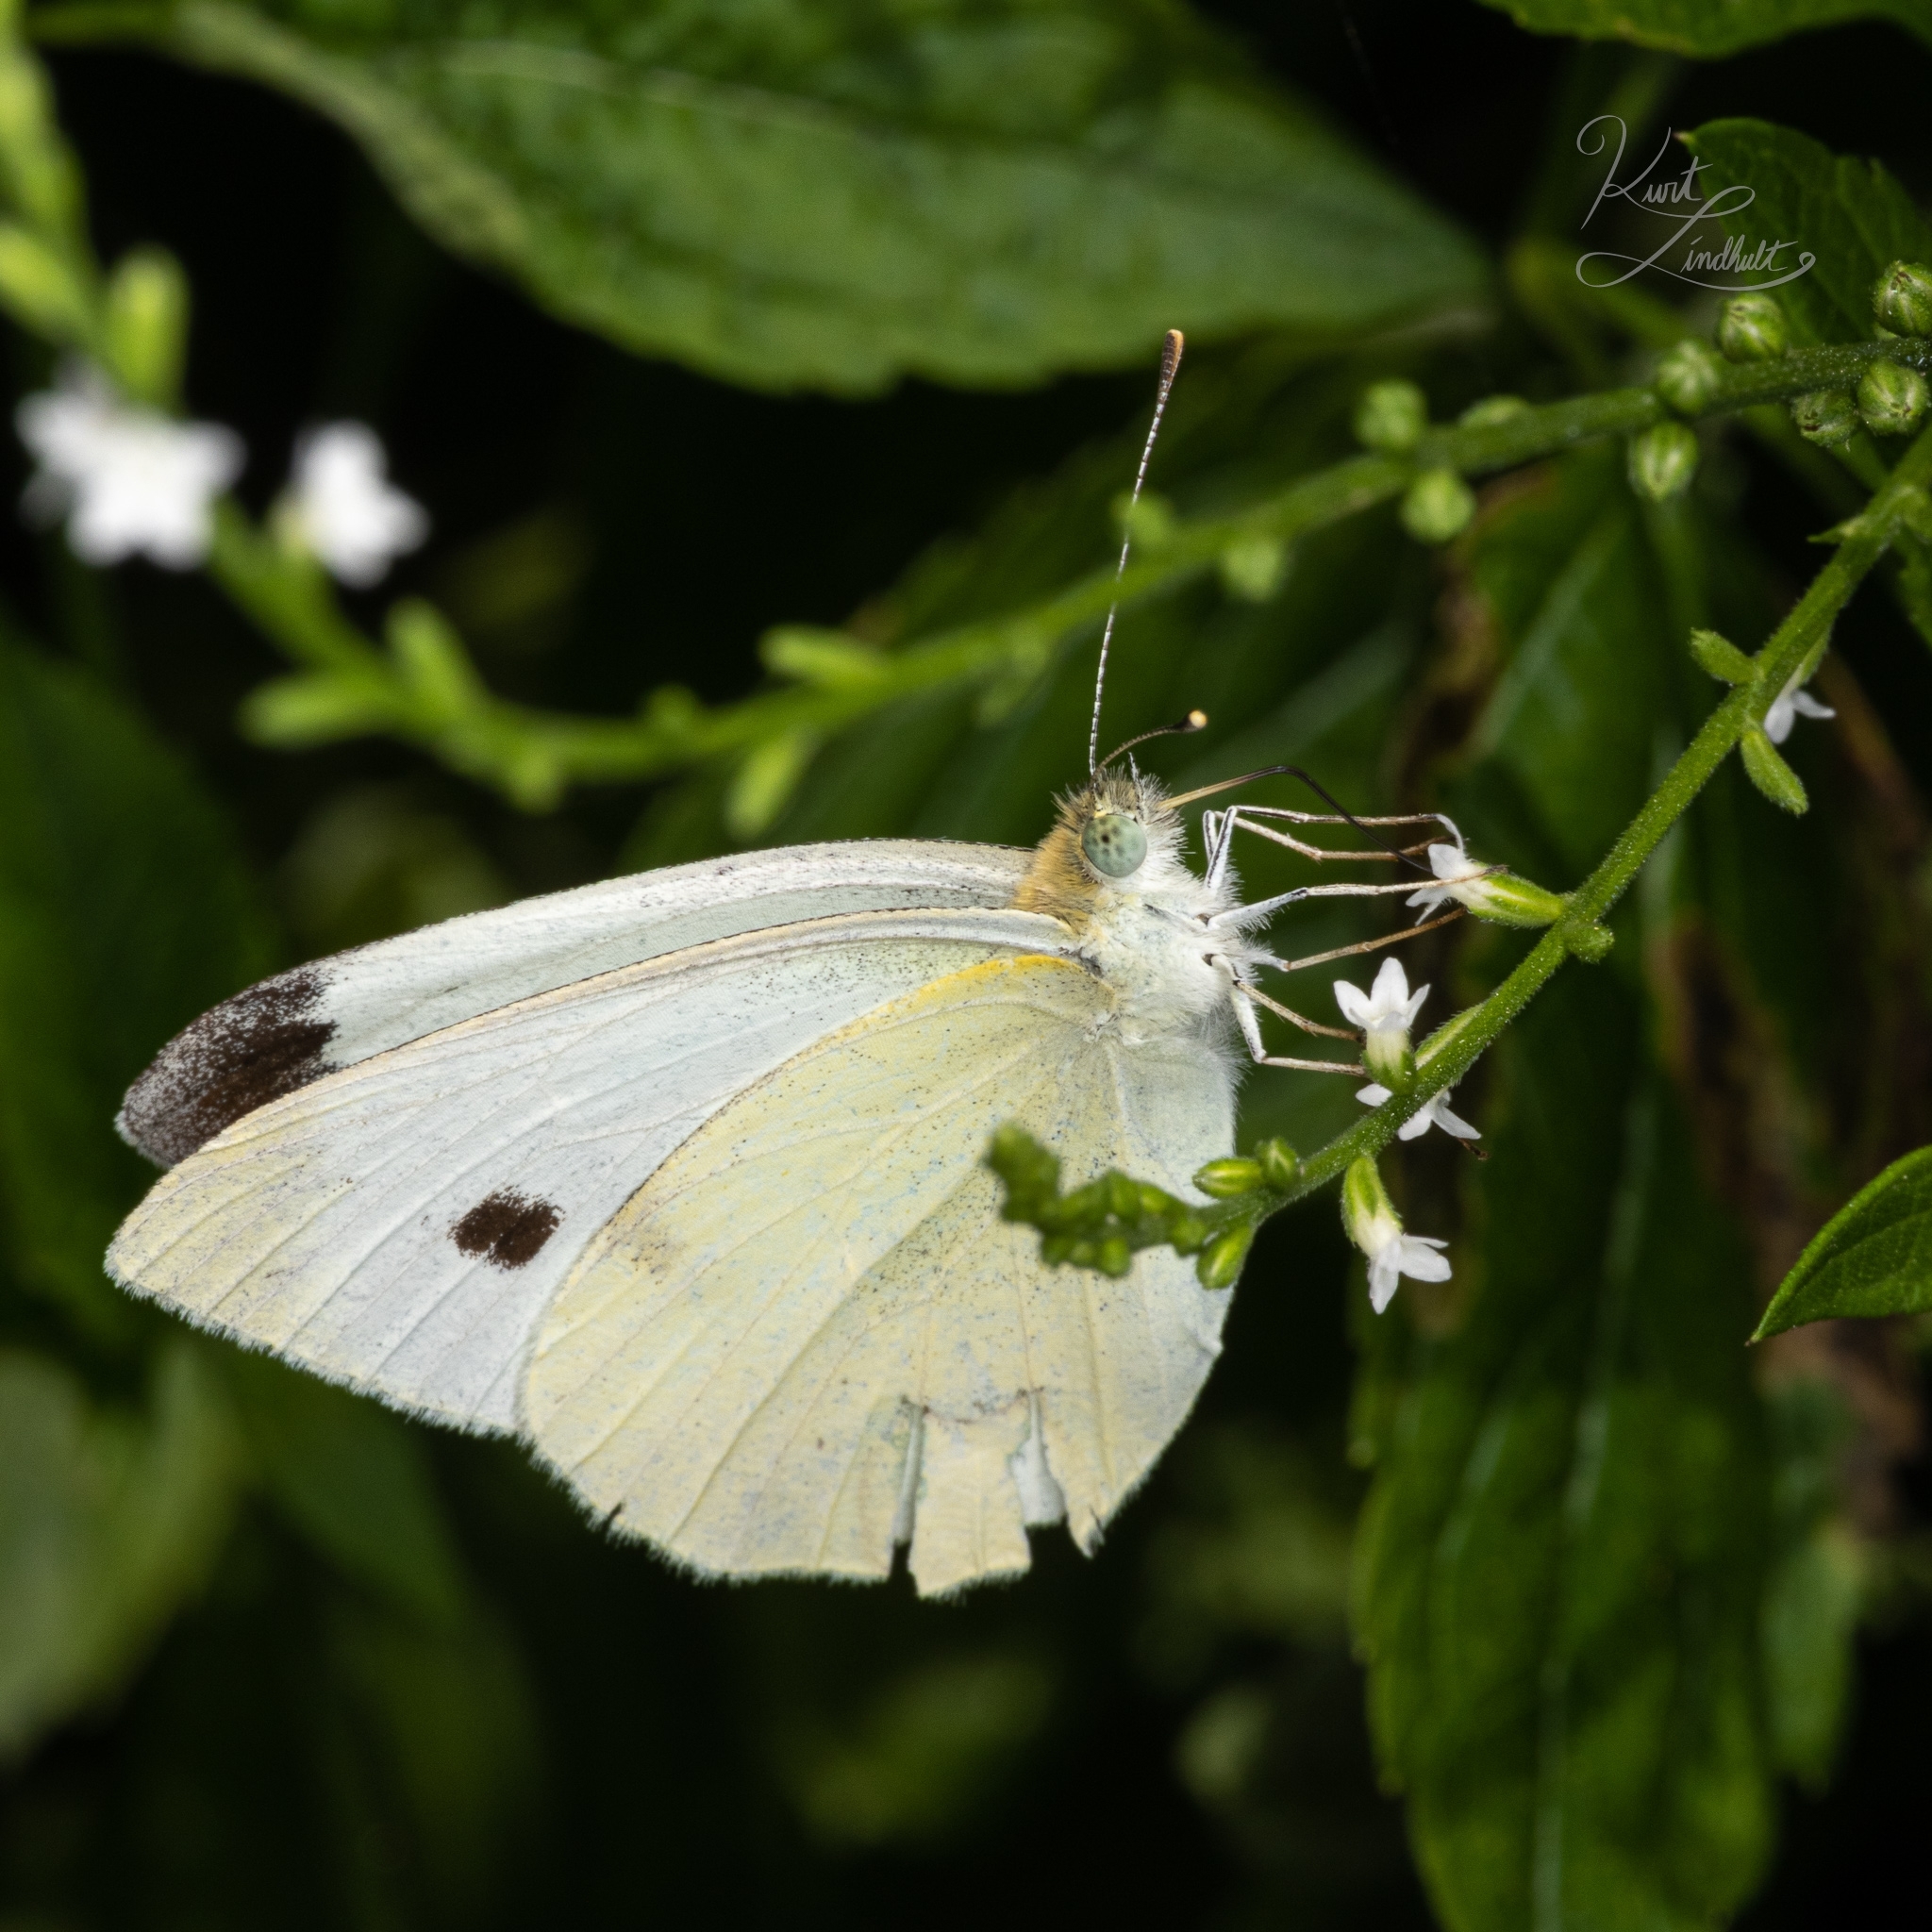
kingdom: Animalia
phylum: Arthropoda
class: Insecta
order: Lepidoptera
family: Pieridae
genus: Pieris
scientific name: Pieris rapae
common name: Small white
